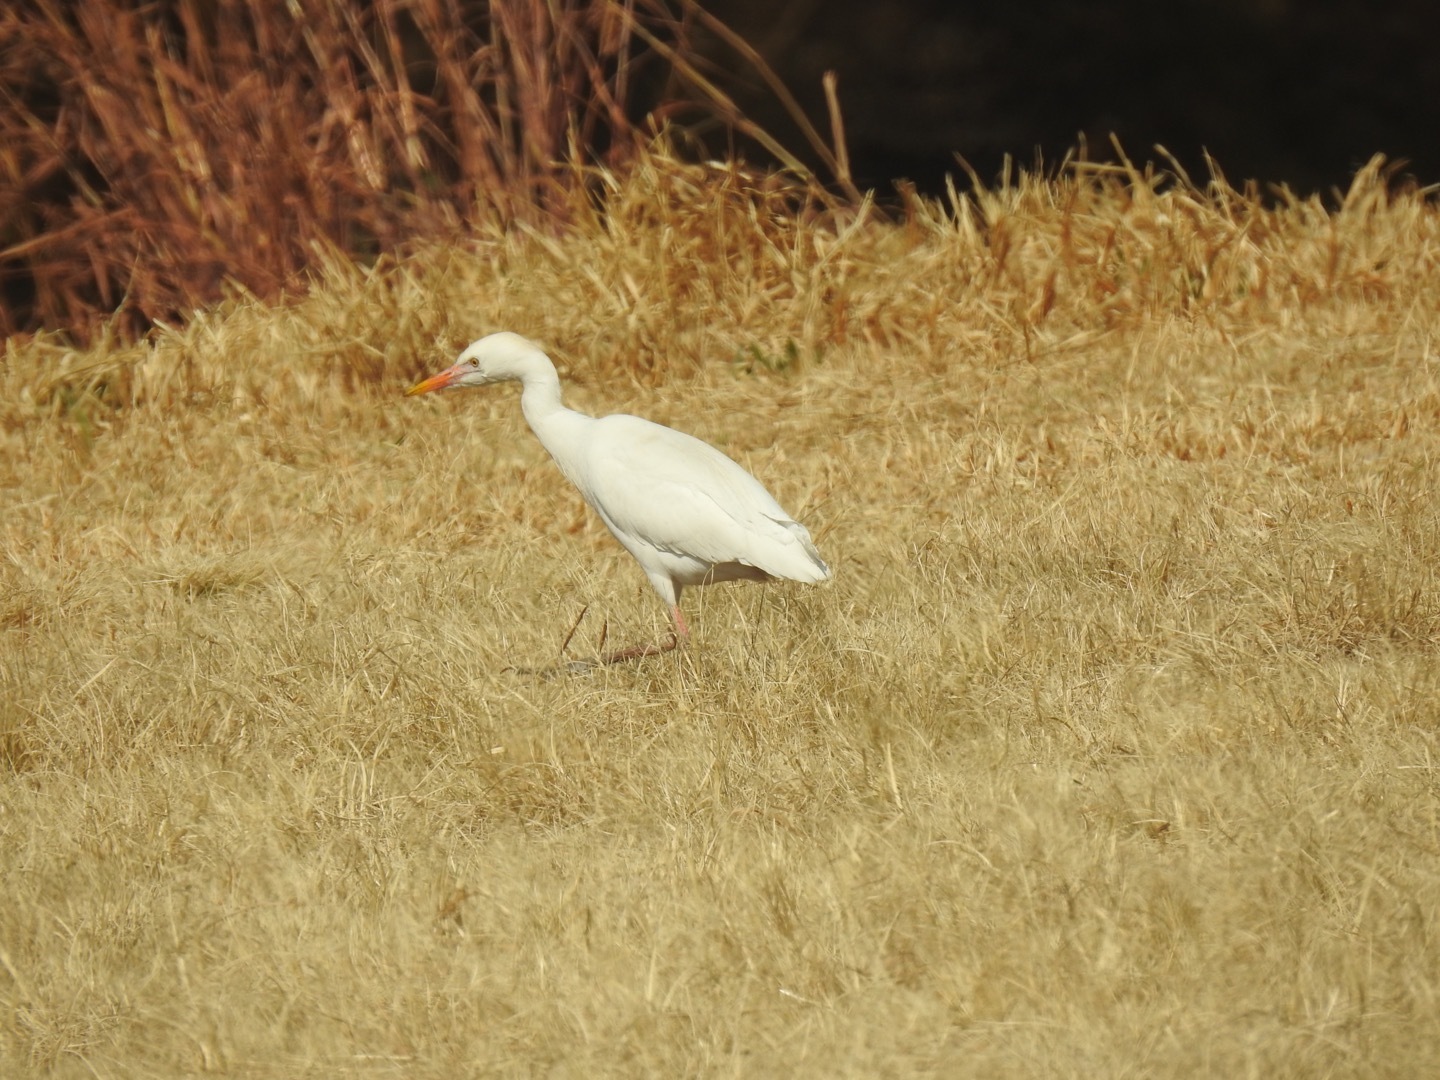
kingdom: Animalia
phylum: Chordata
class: Aves
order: Pelecaniformes
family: Ardeidae
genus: Bubulcus
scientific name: Bubulcus ibis
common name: Cattle egret
